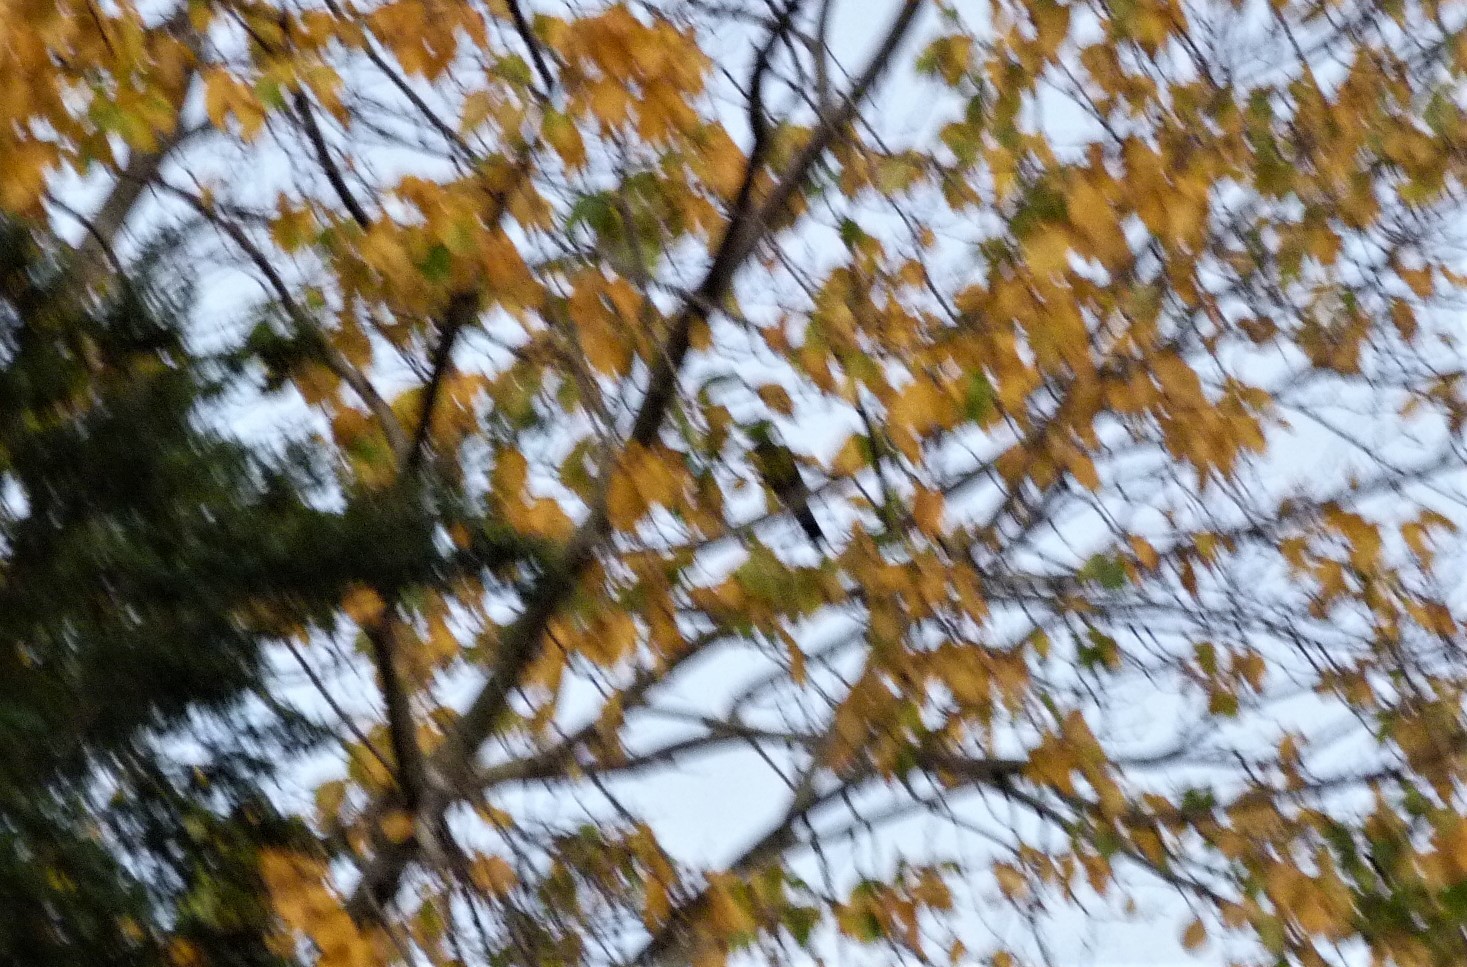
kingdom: Animalia
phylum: Chordata
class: Aves
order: Passeriformes
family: Meliphagidae
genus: Anthornis
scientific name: Anthornis melanura
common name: New zealand bellbird
